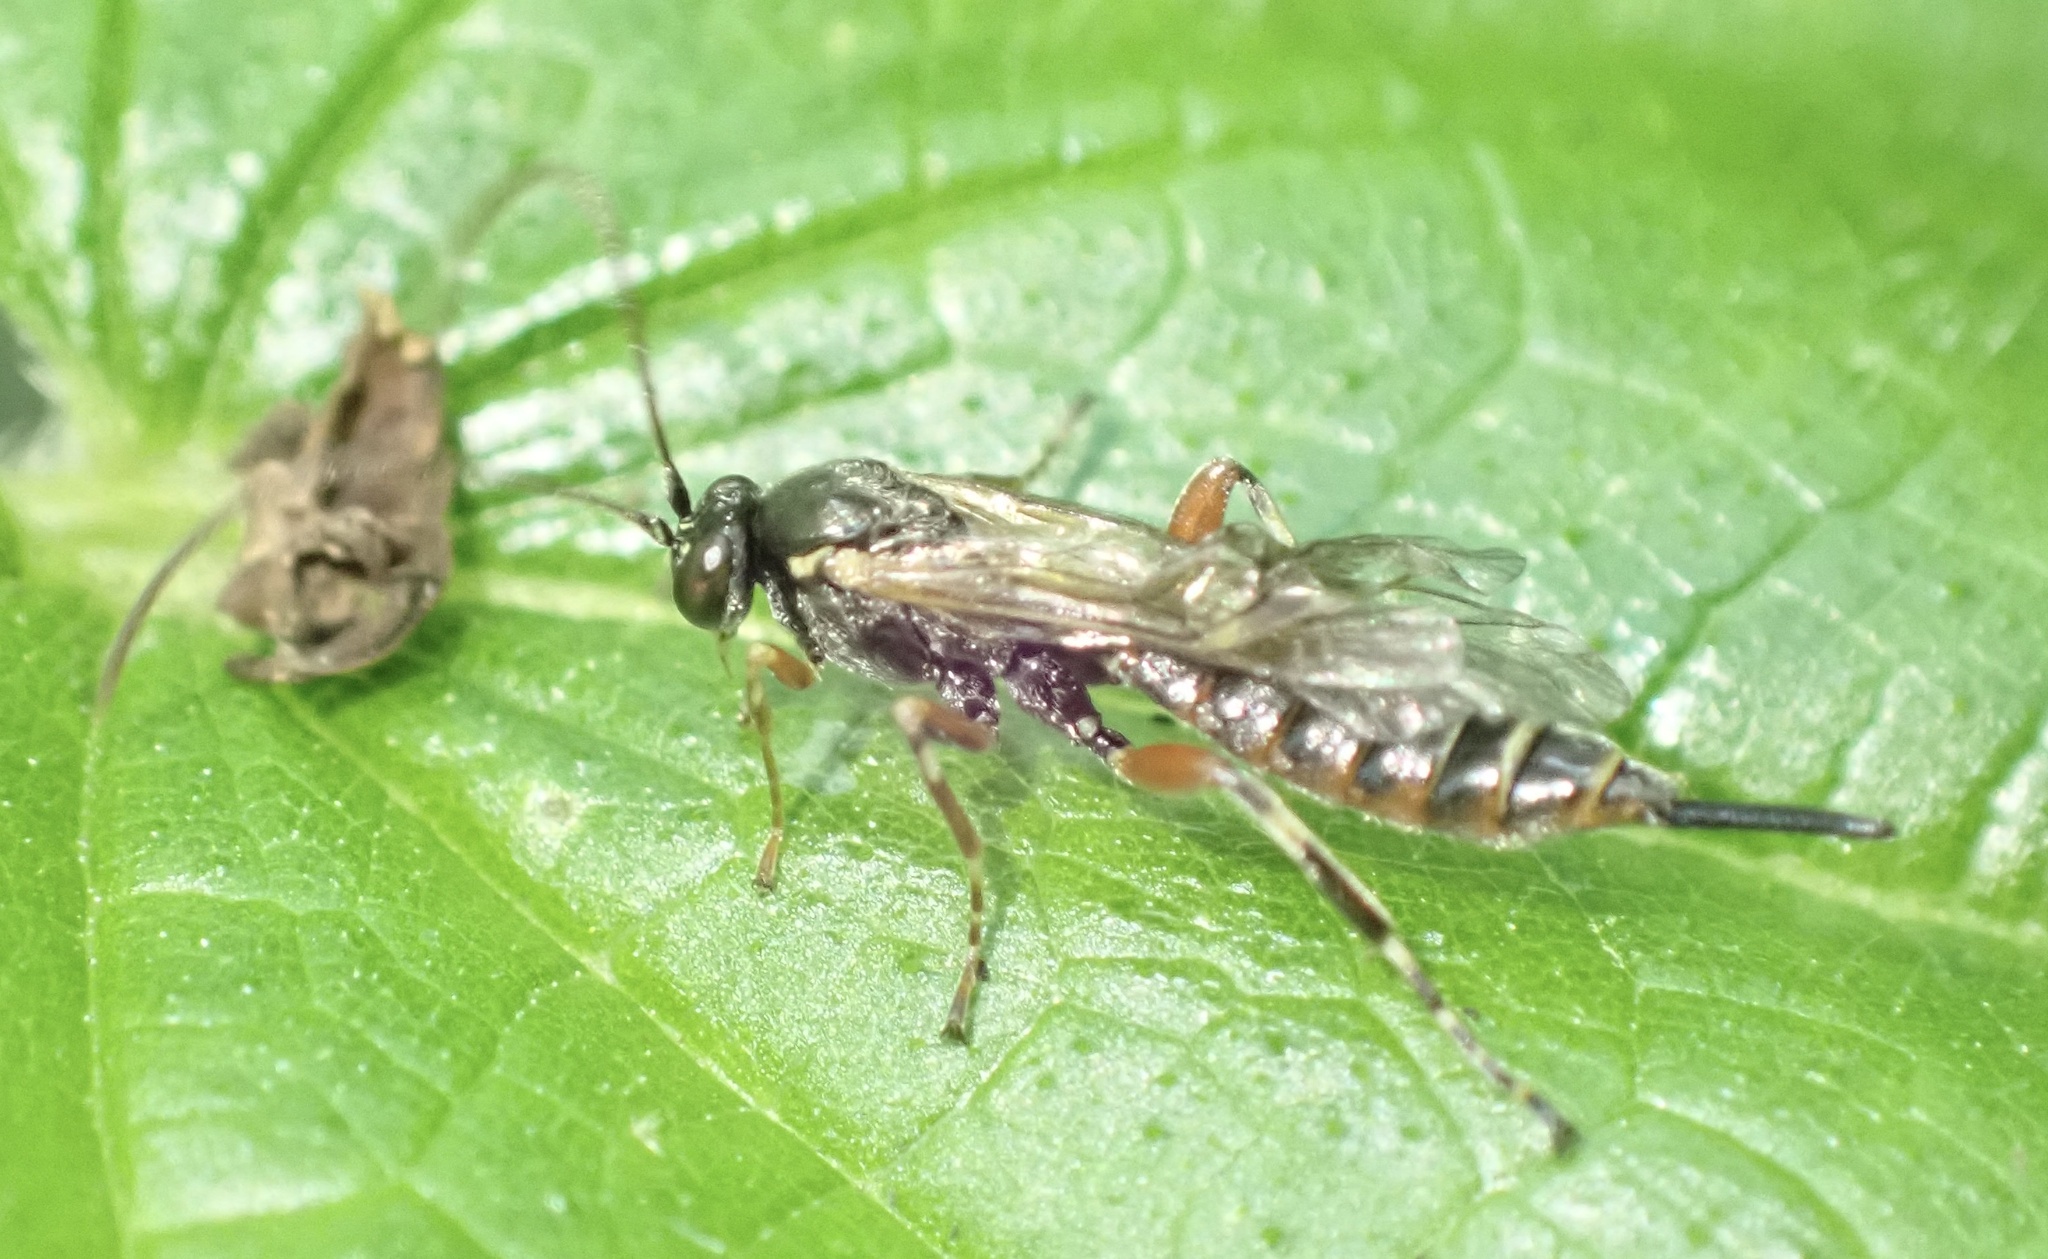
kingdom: Animalia
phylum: Arthropoda
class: Insecta
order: Hymenoptera
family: Ichneumonidae
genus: Itoplectis
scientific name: Itoplectis maculator
